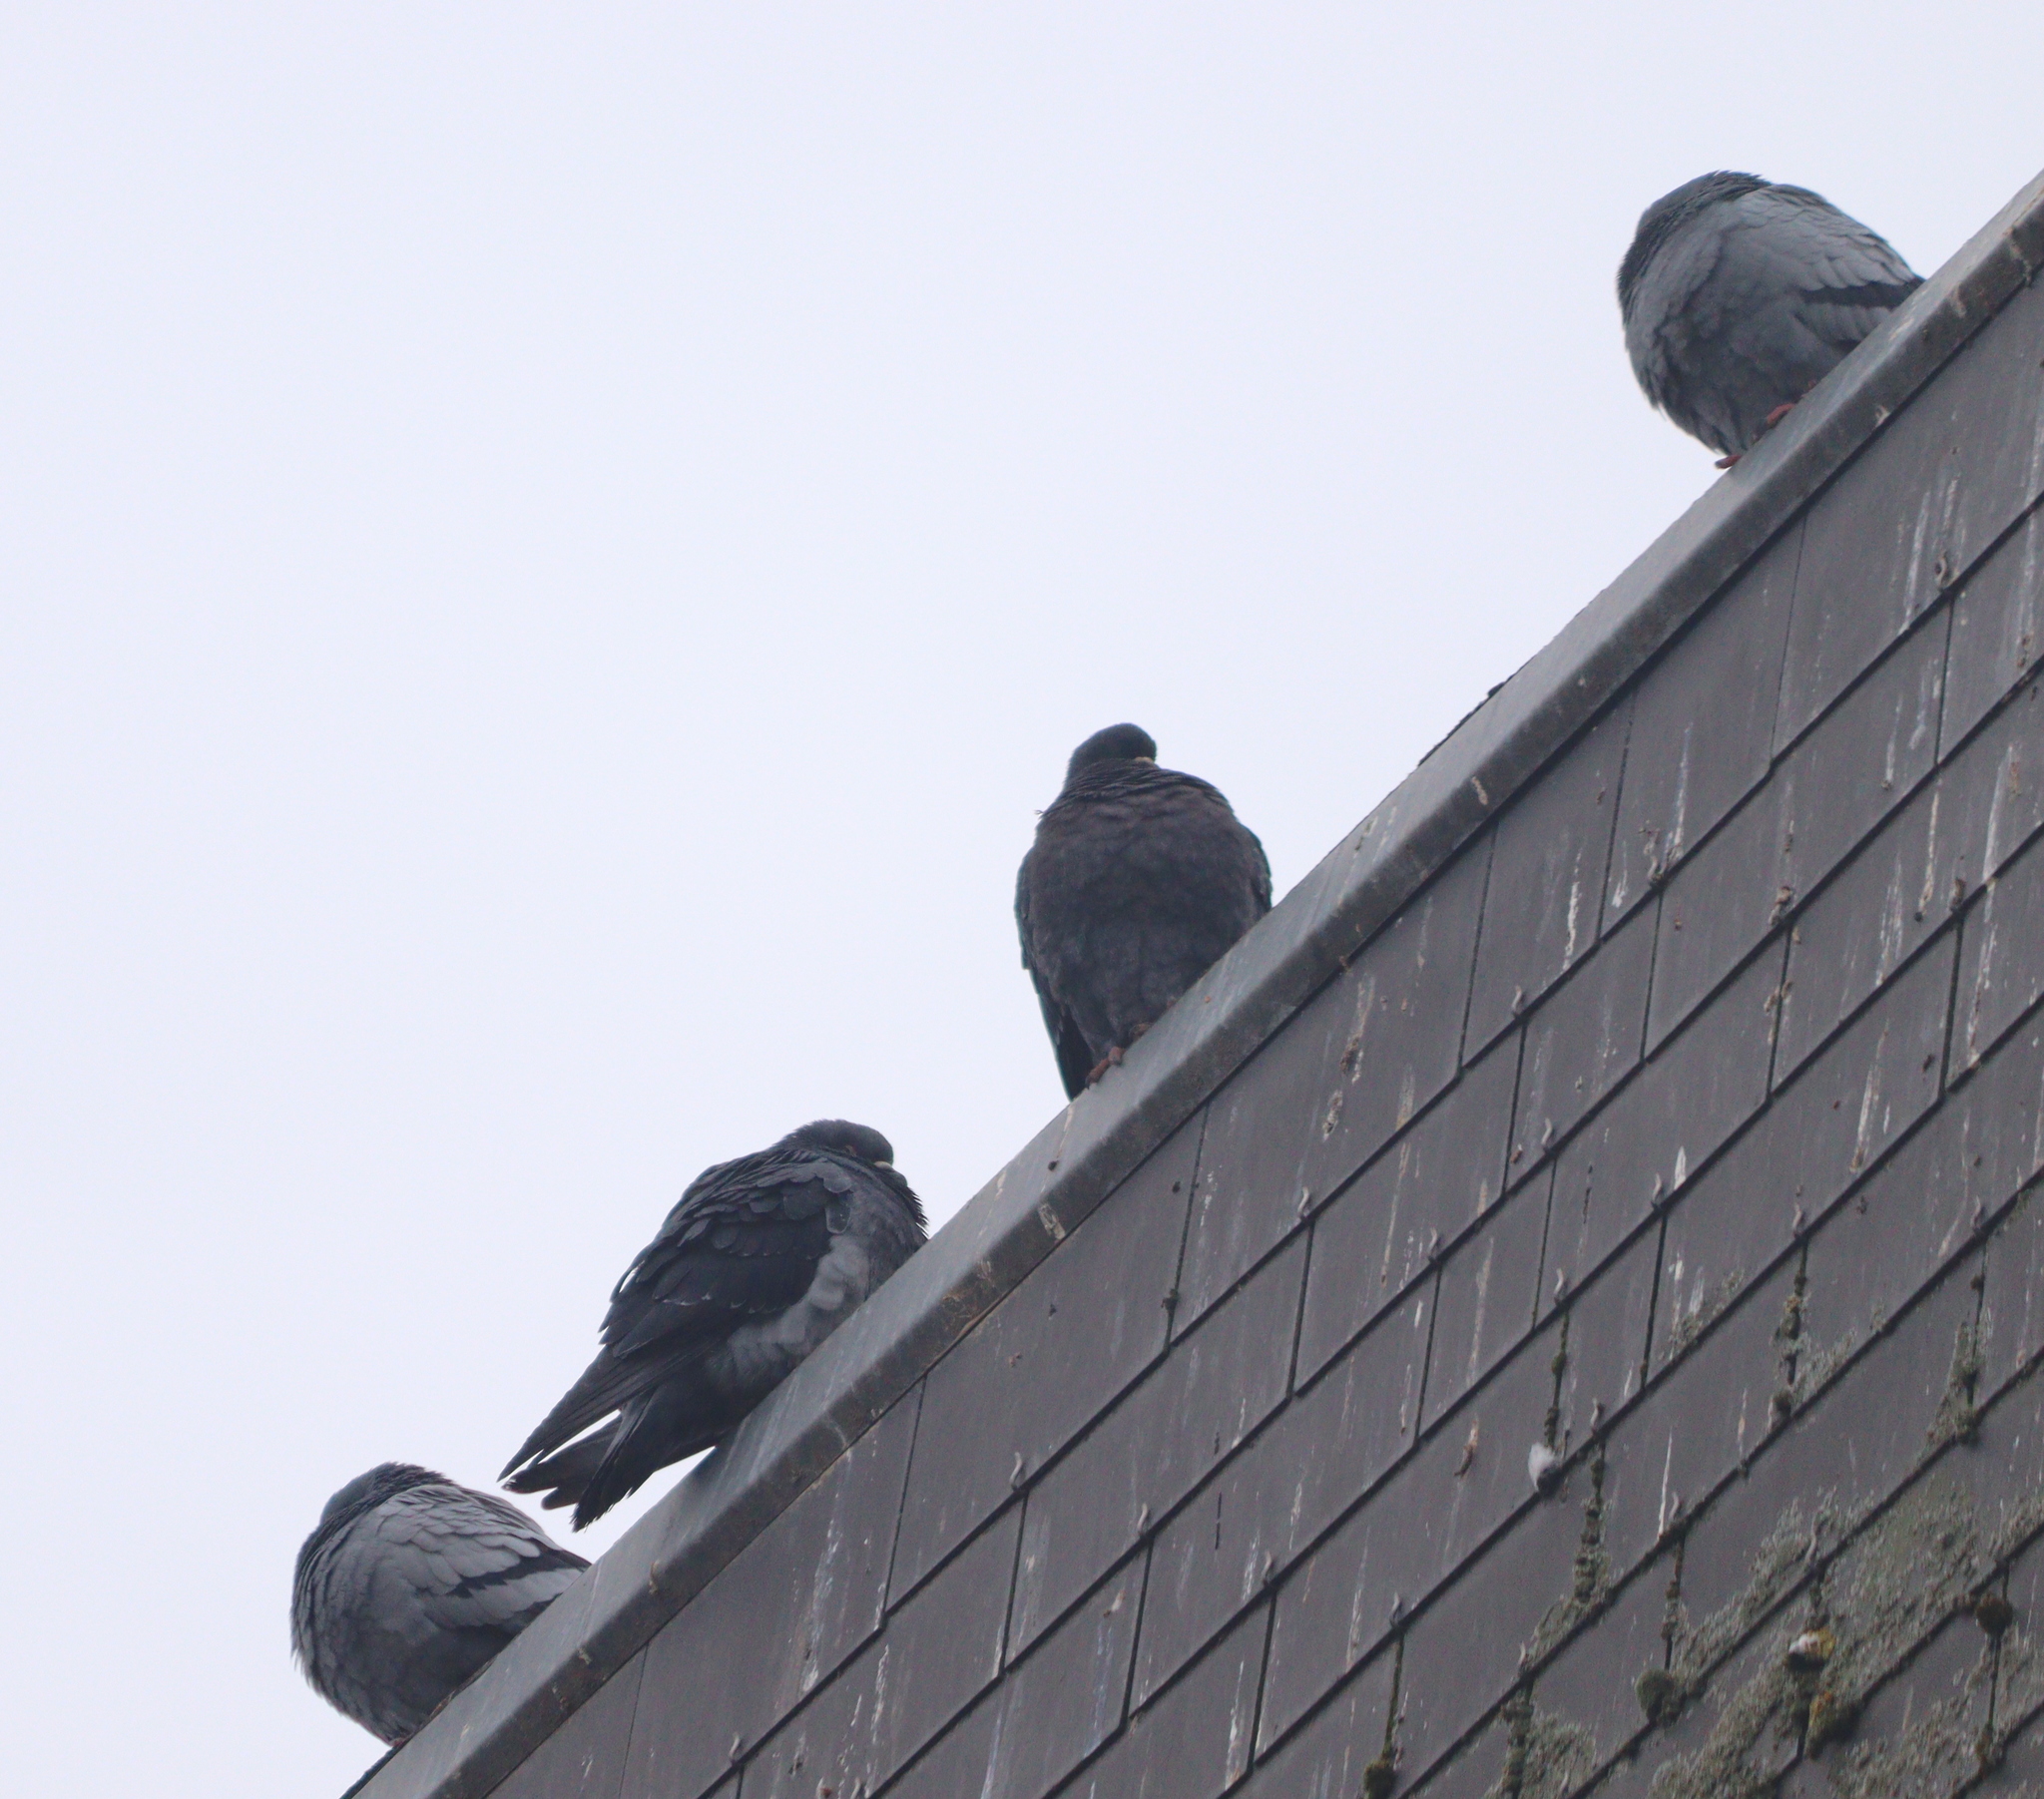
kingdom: Animalia
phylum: Chordata
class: Aves
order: Columbiformes
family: Columbidae
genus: Columba
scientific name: Columba livia
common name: Rock pigeon
